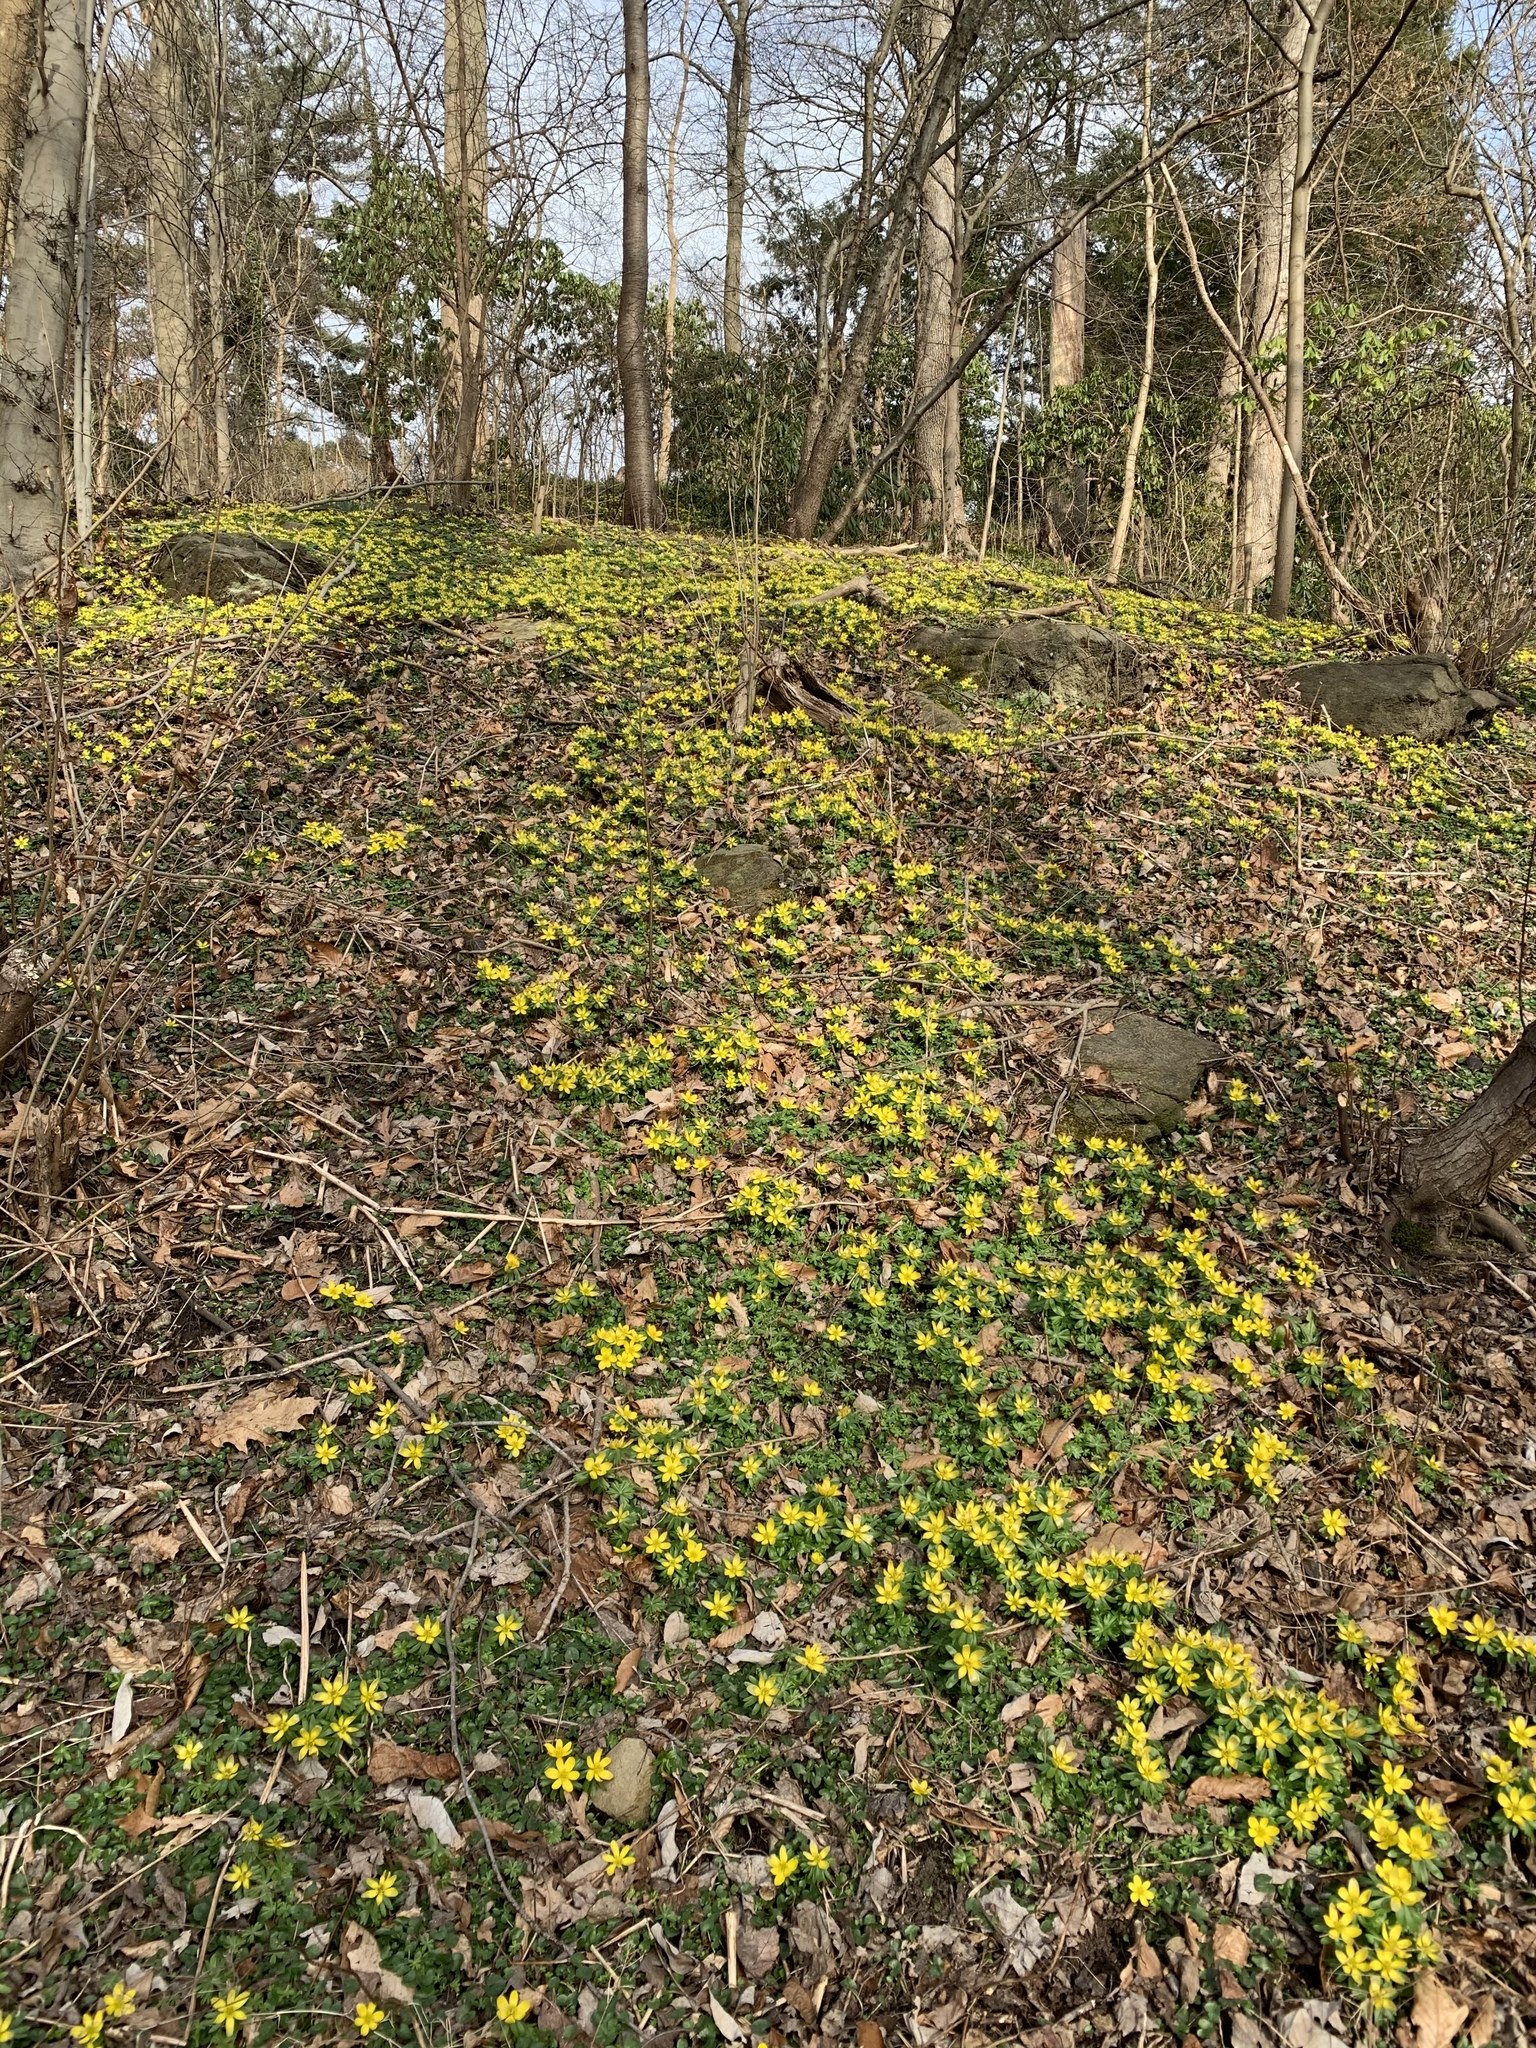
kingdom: Plantae
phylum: Tracheophyta
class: Magnoliopsida
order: Ranunculales
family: Ranunculaceae
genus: Eranthis
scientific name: Eranthis hyemalis
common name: Winter aconite
